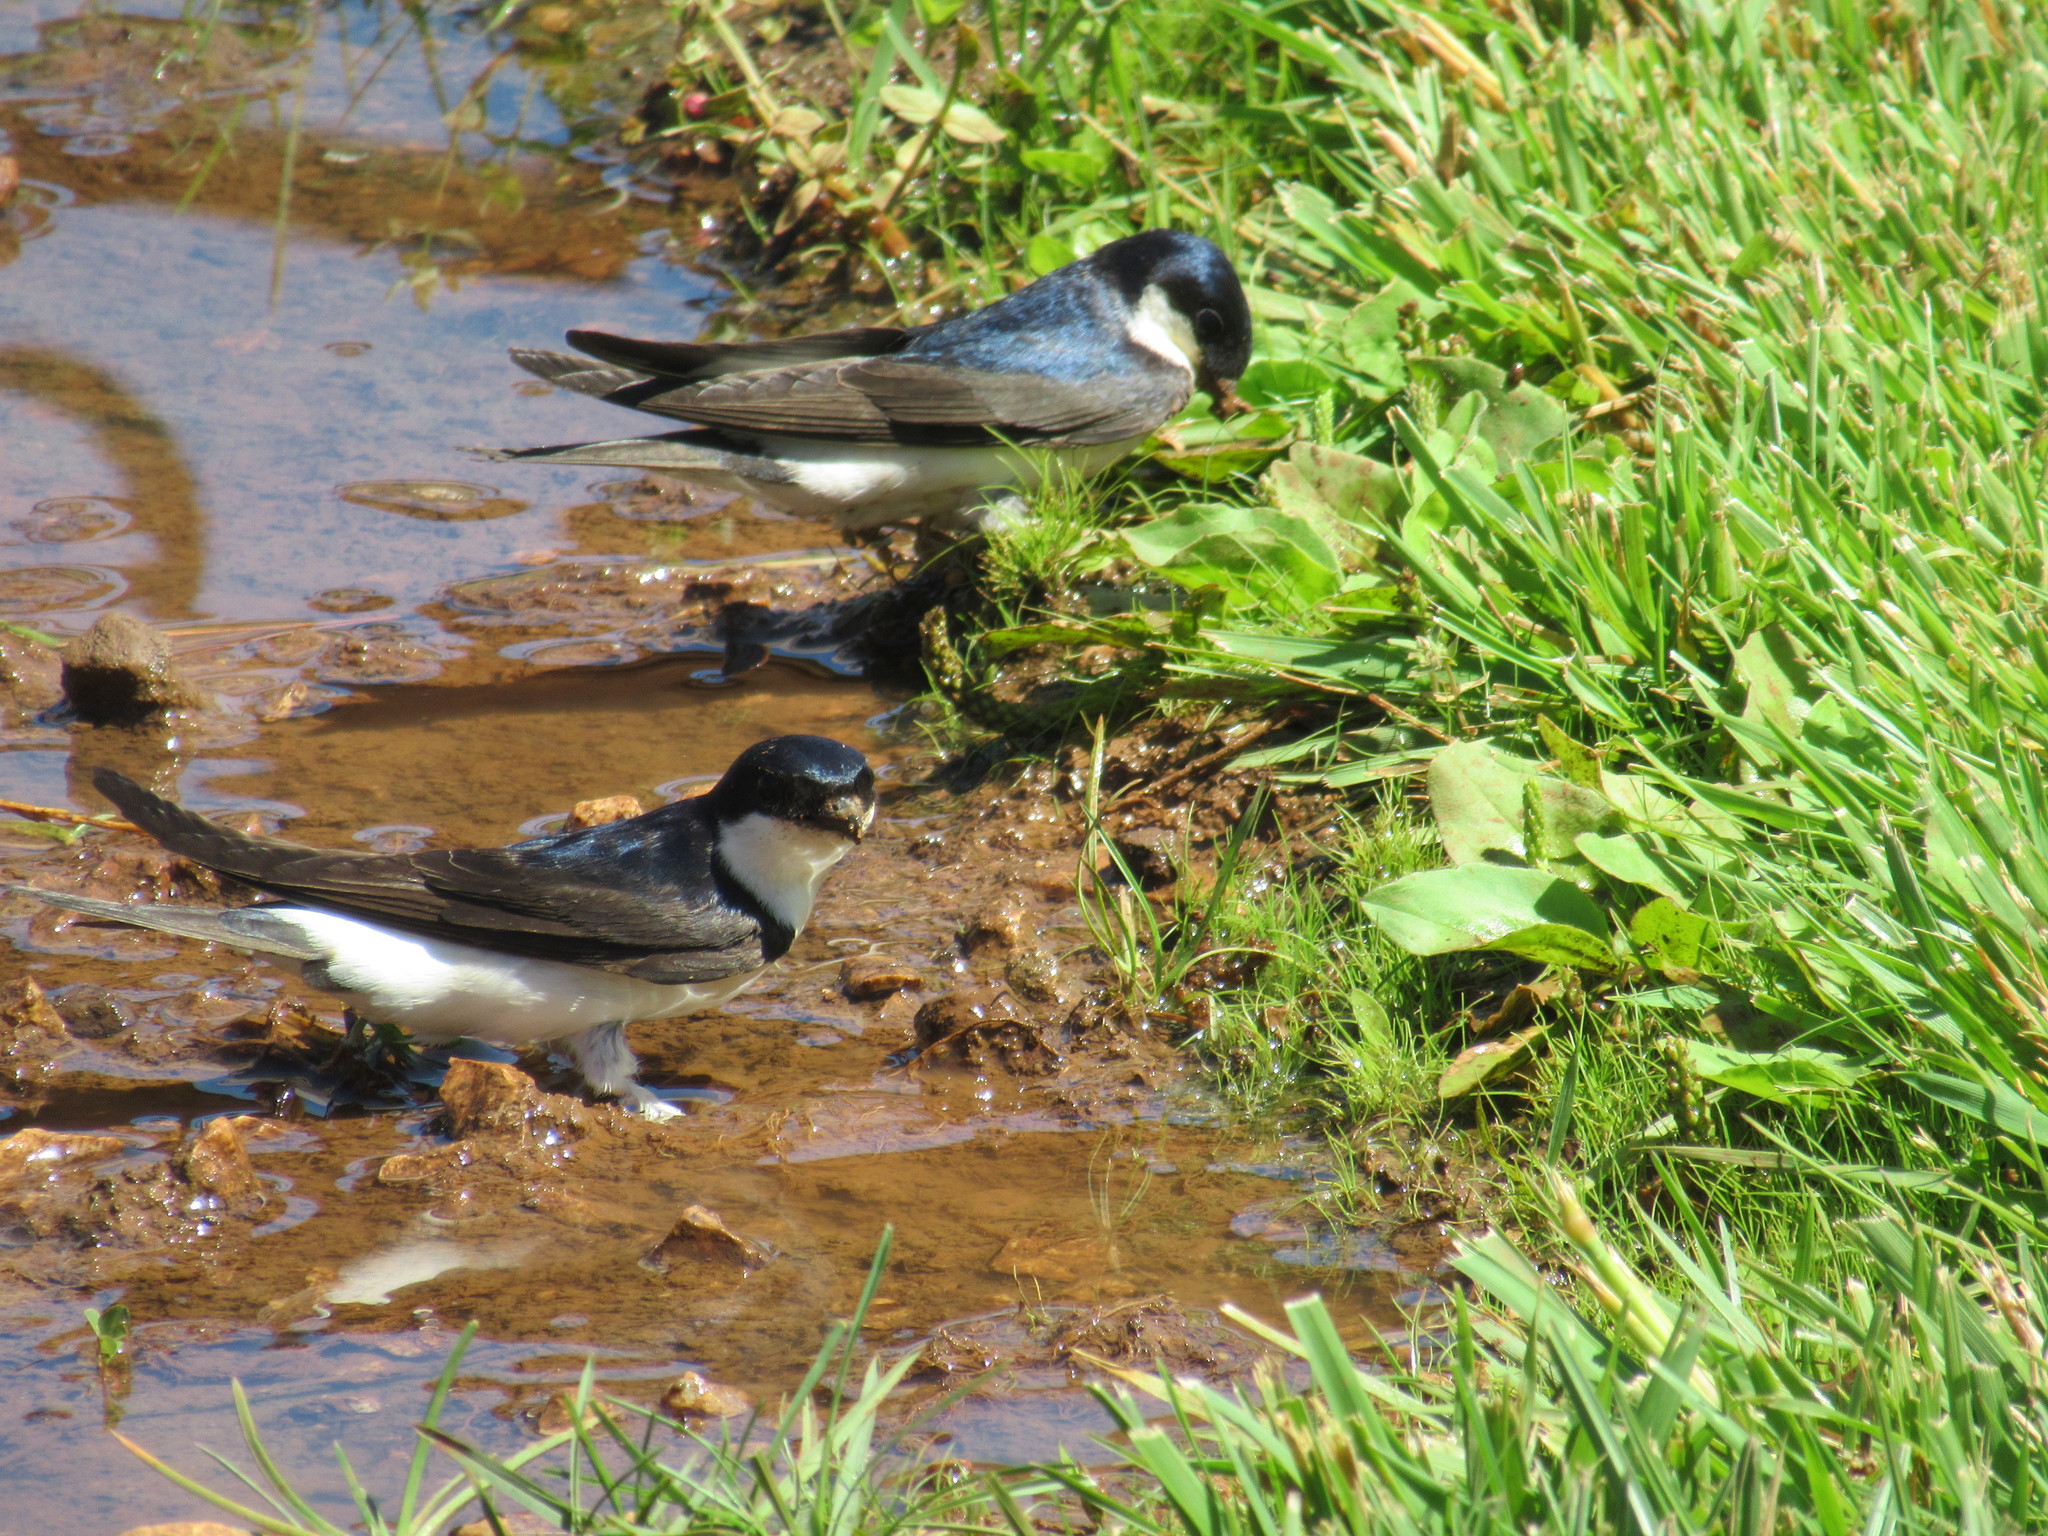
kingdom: Animalia
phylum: Chordata
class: Aves
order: Passeriformes
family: Hirundinidae
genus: Delichon
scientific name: Delichon urbicum
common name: Common house martin
